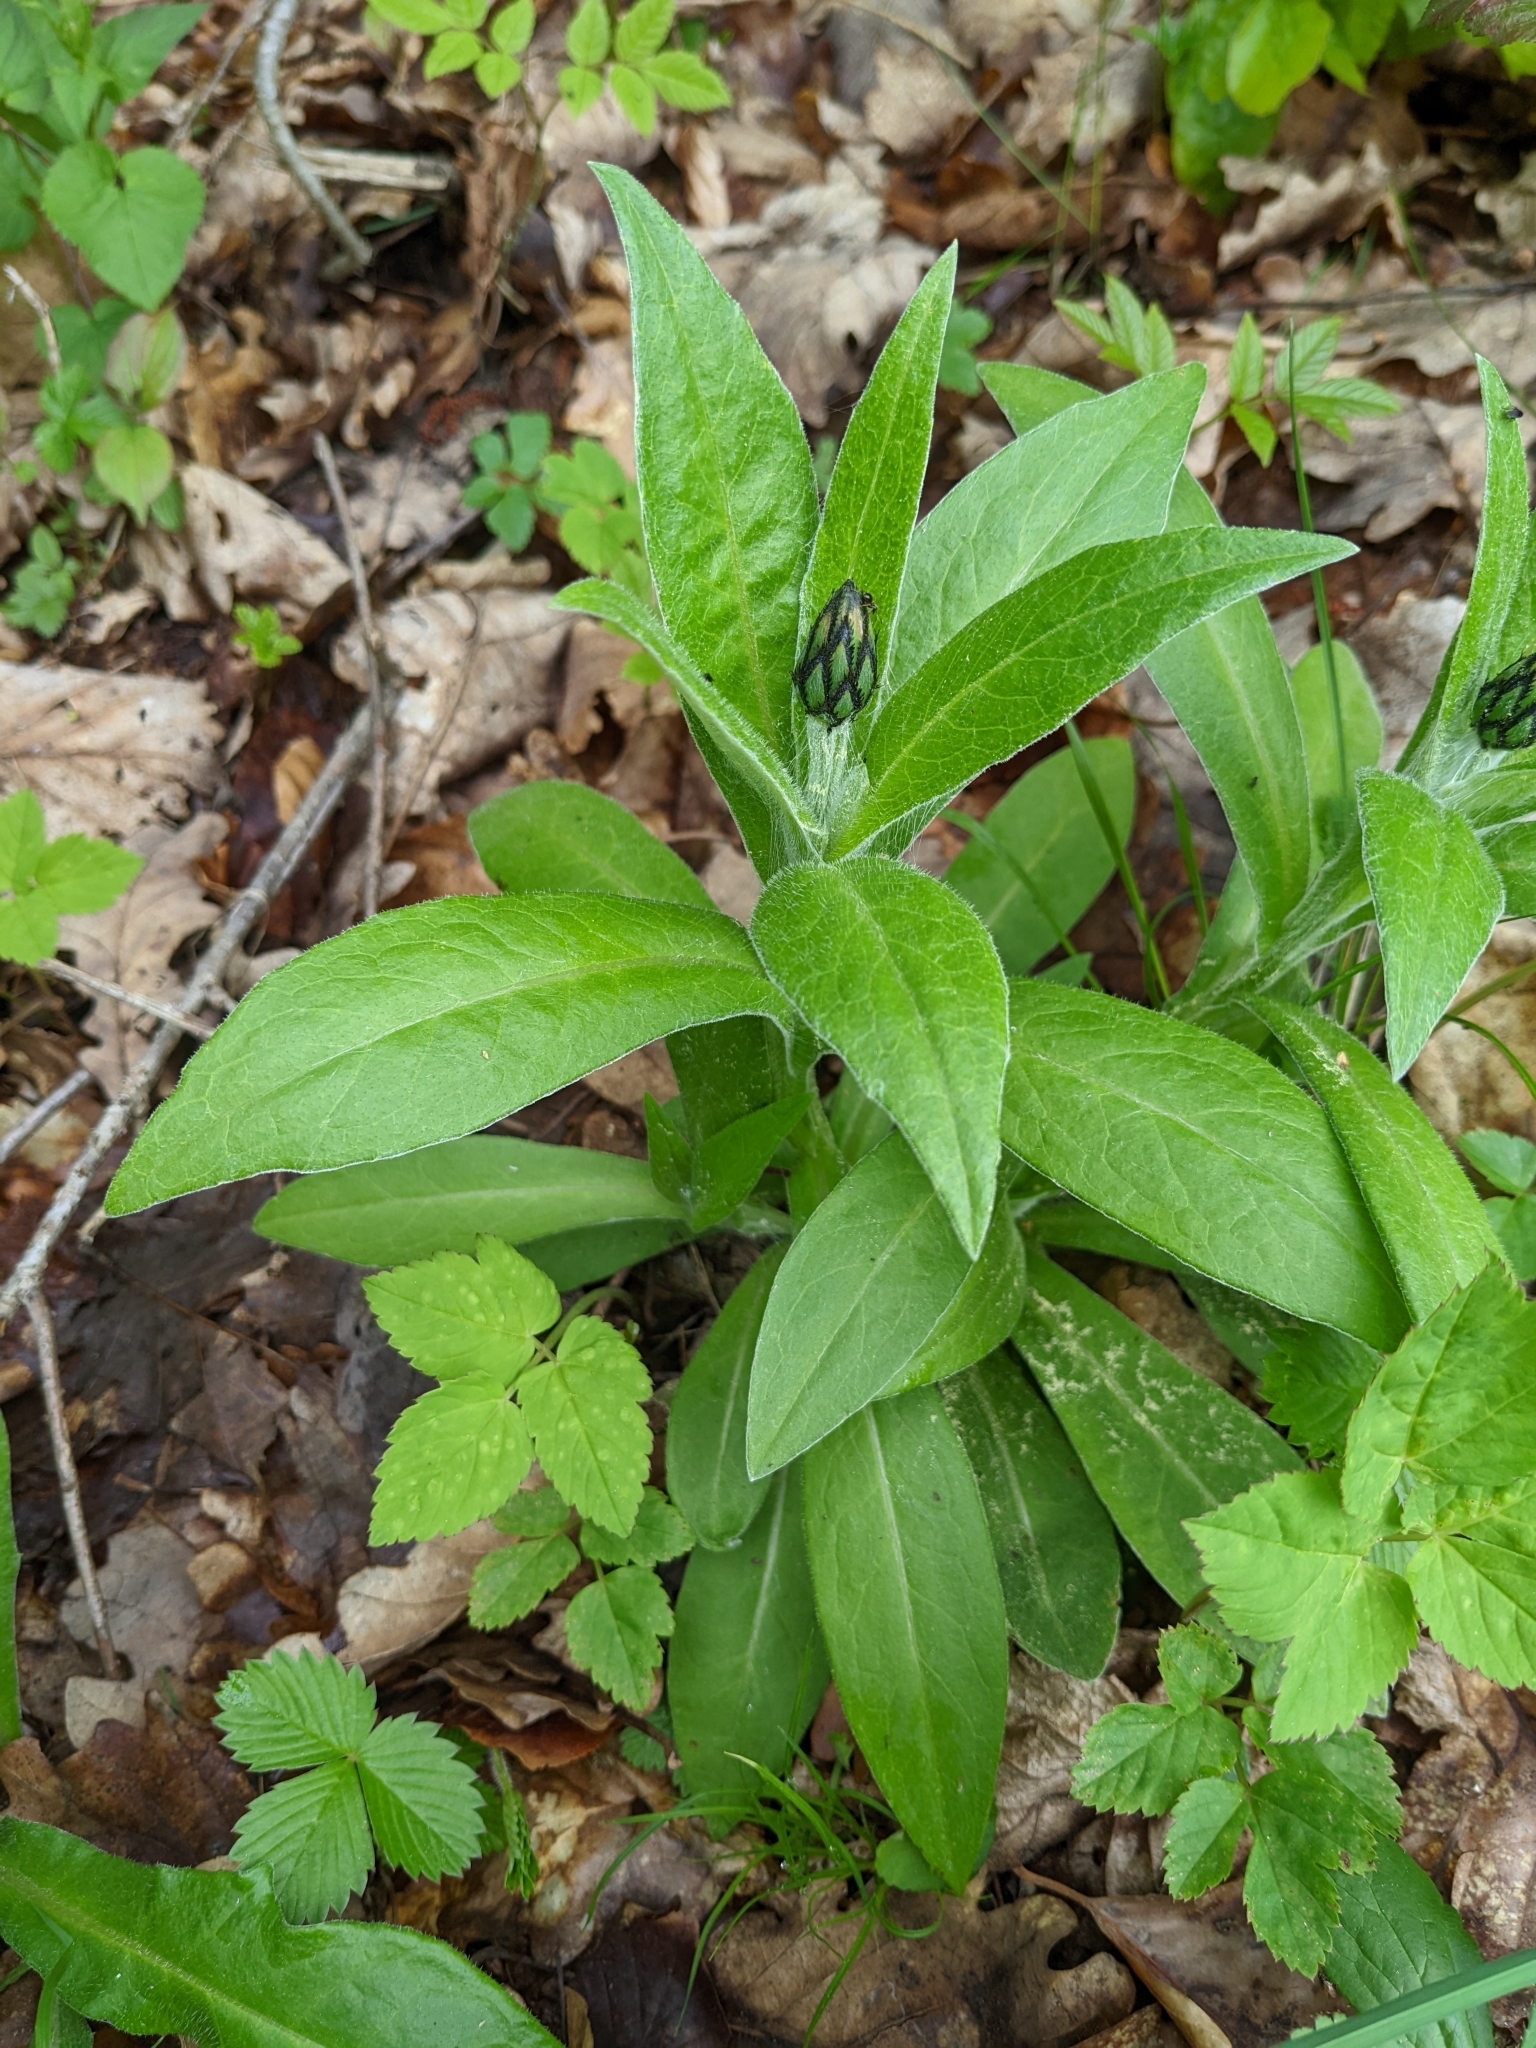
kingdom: Plantae
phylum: Tracheophyta
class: Magnoliopsida
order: Asterales
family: Asteraceae
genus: Centaurea
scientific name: Centaurea montana
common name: Perennial cornflower
